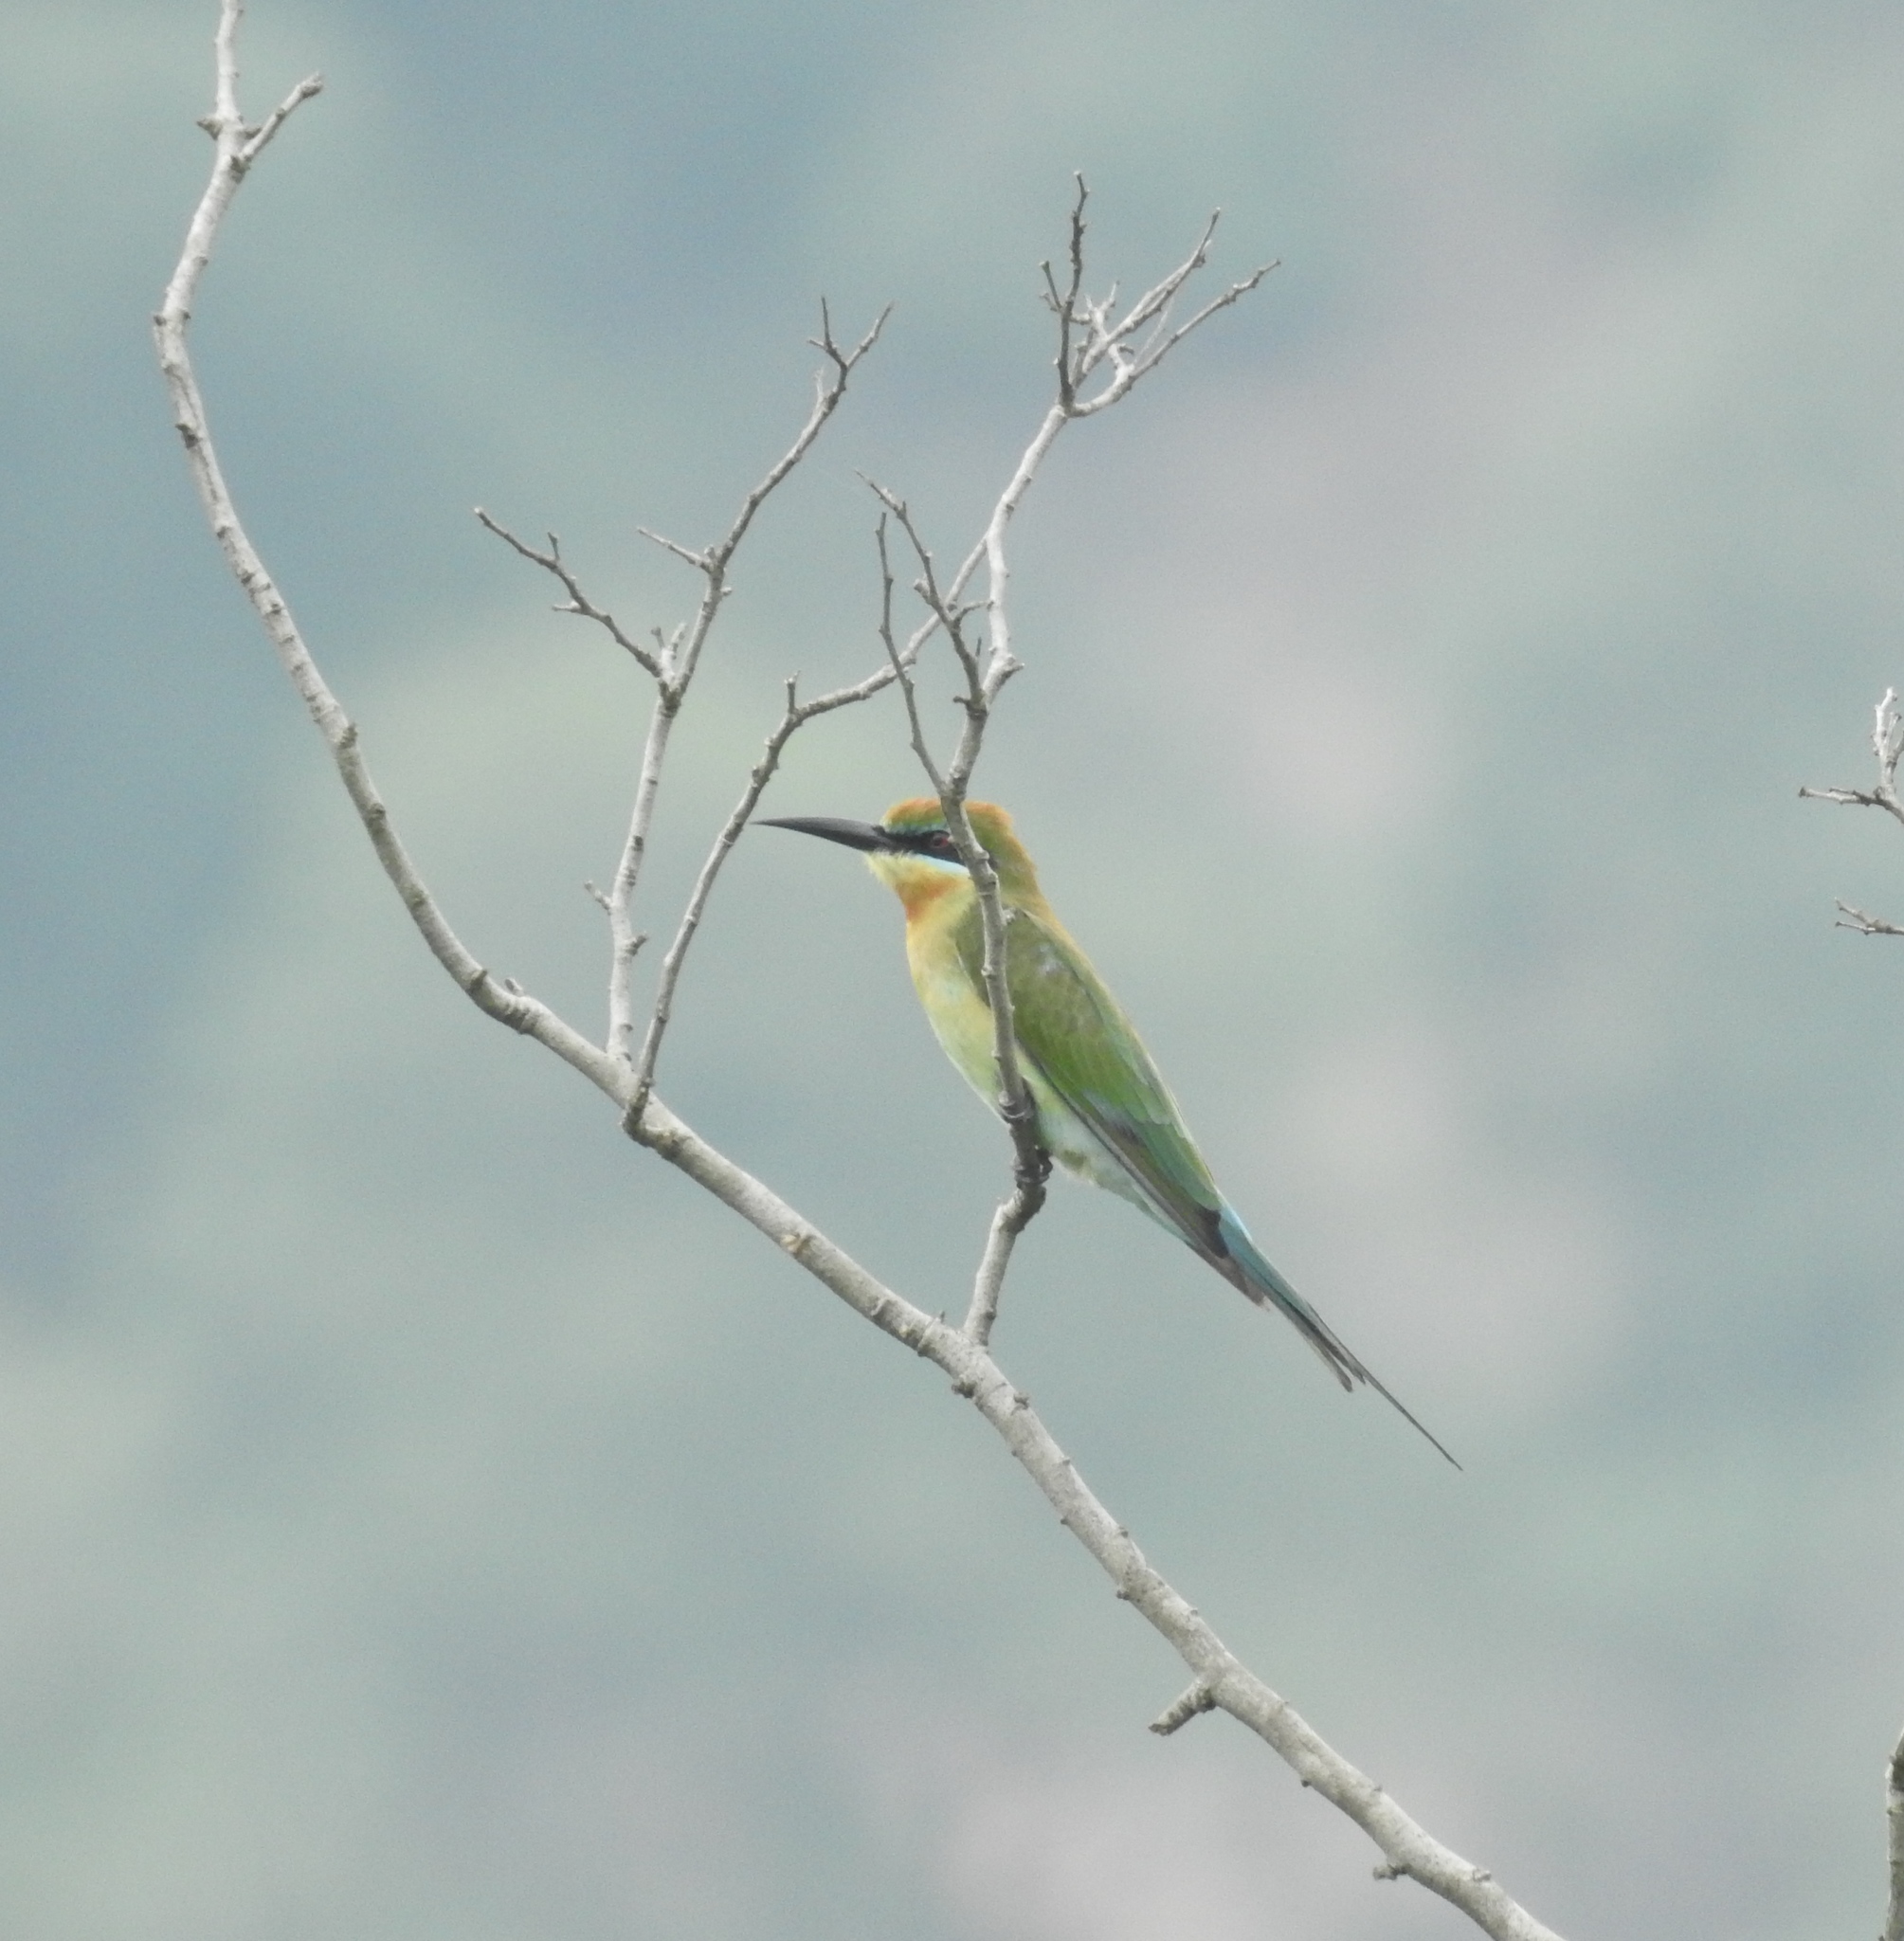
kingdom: Animalia
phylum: Chordata
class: Aves
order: Coraciiformes
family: Meropidae
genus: Merops
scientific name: Merops philippinus
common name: Blue-tailed bee-eater
